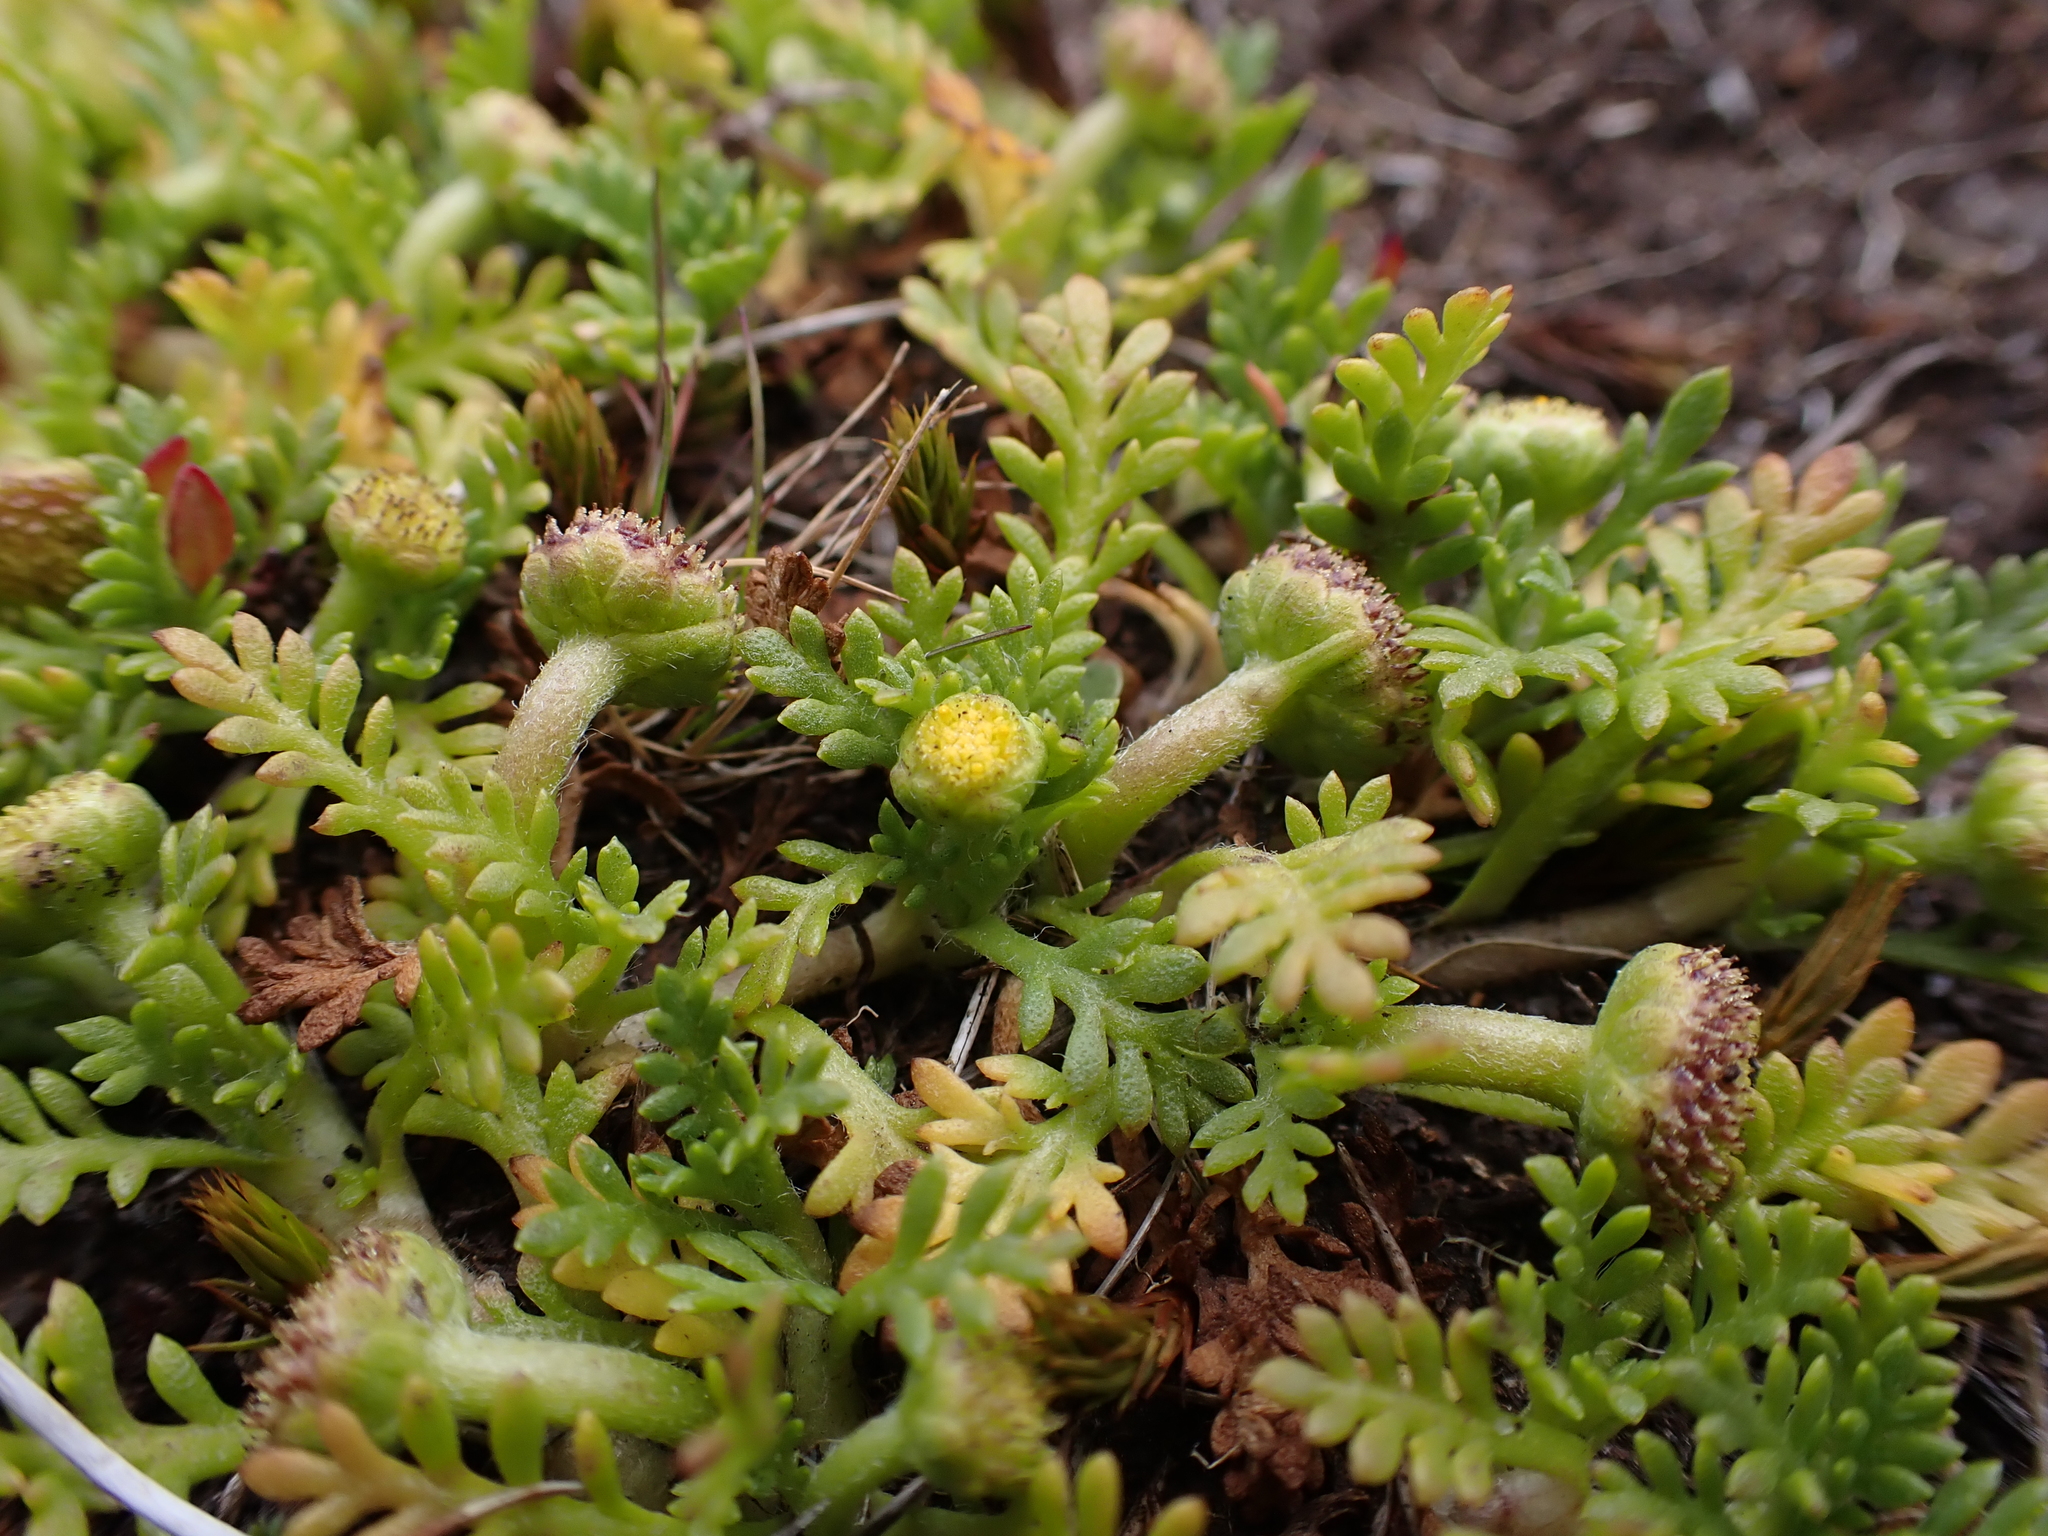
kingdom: Plantae
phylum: Tracheophyta
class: Magnoliopsida
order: Asterales
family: Asteraceae
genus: Cotula
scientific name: Cotula alpina
